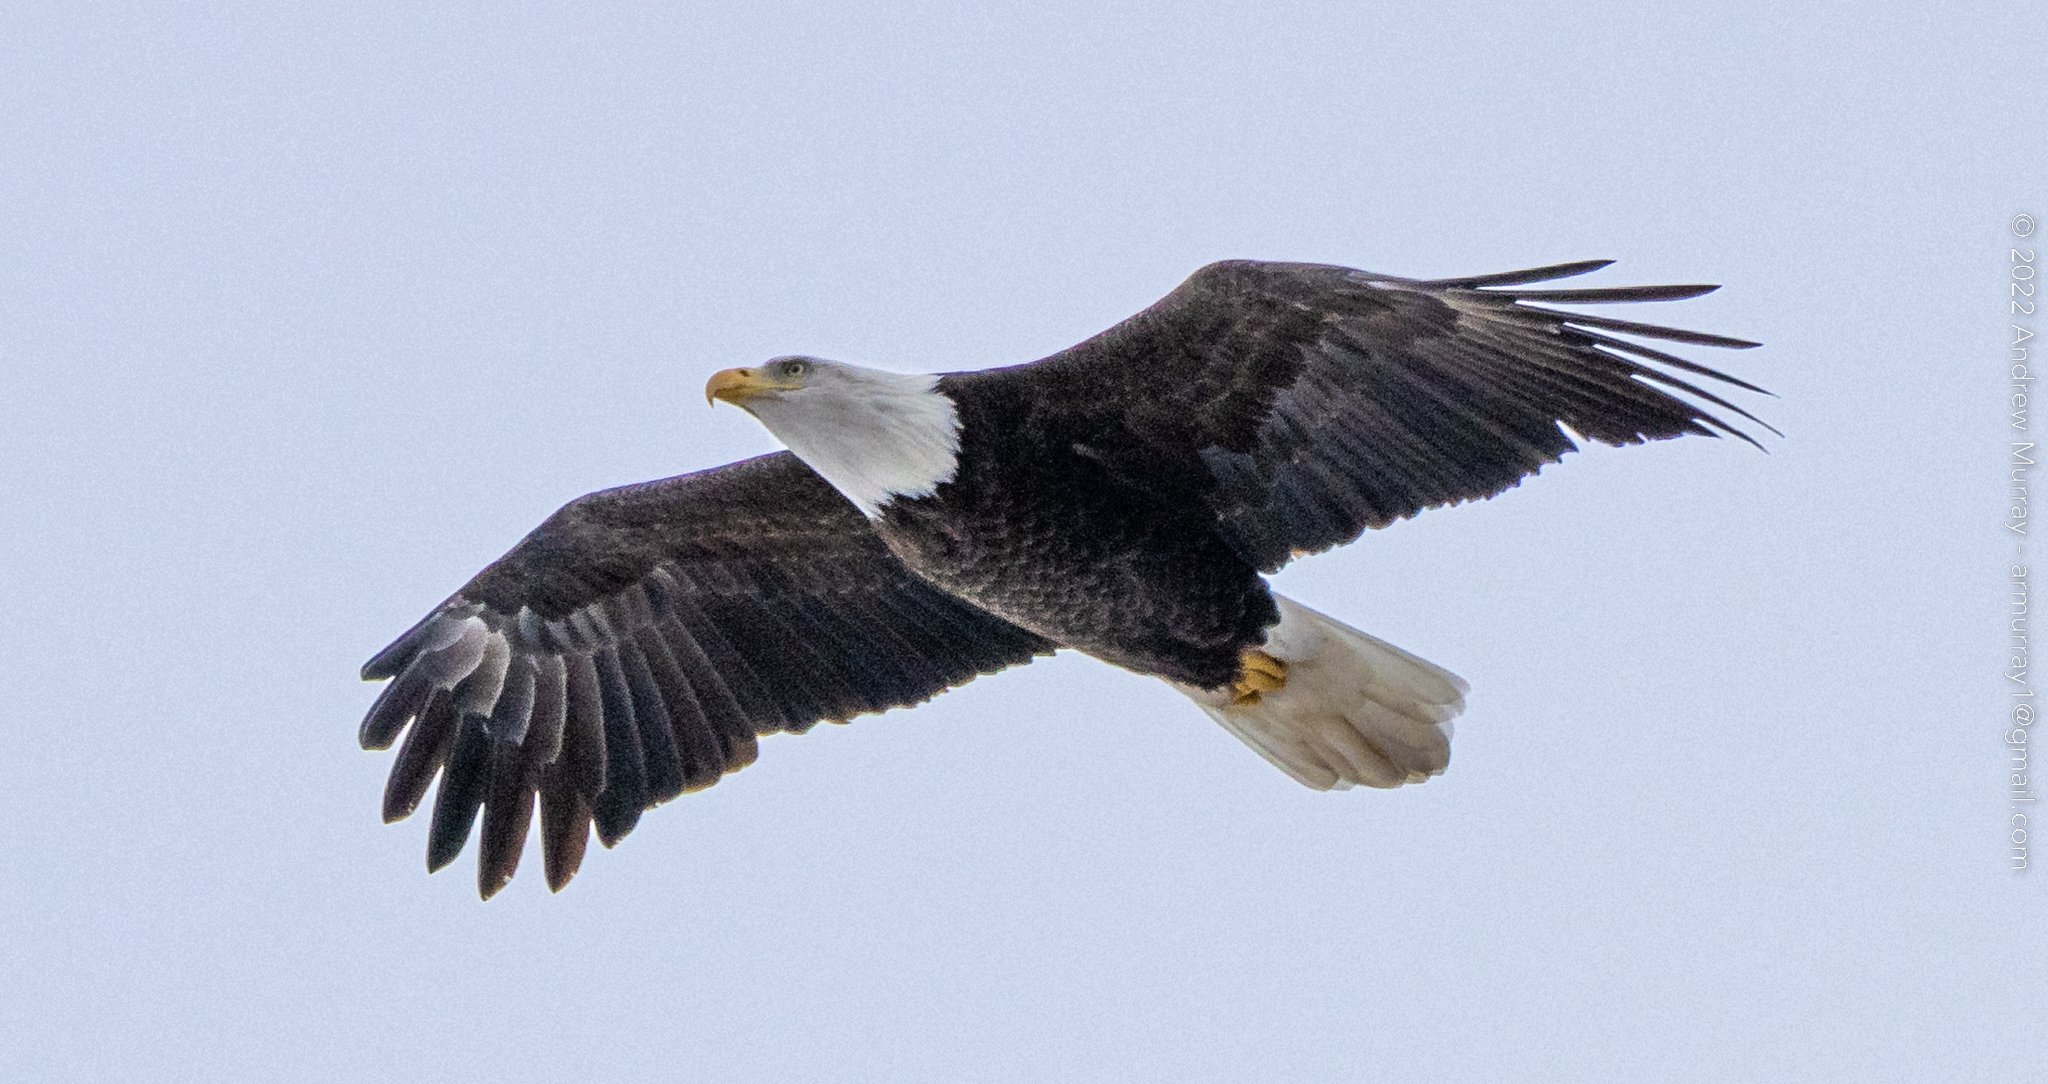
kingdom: Animalia
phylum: Chordata
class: Aves
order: Accipitriformes
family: Accipitridae
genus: Haliaeetus
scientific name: Haliaeetus leucocephalus
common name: Bald eagle
